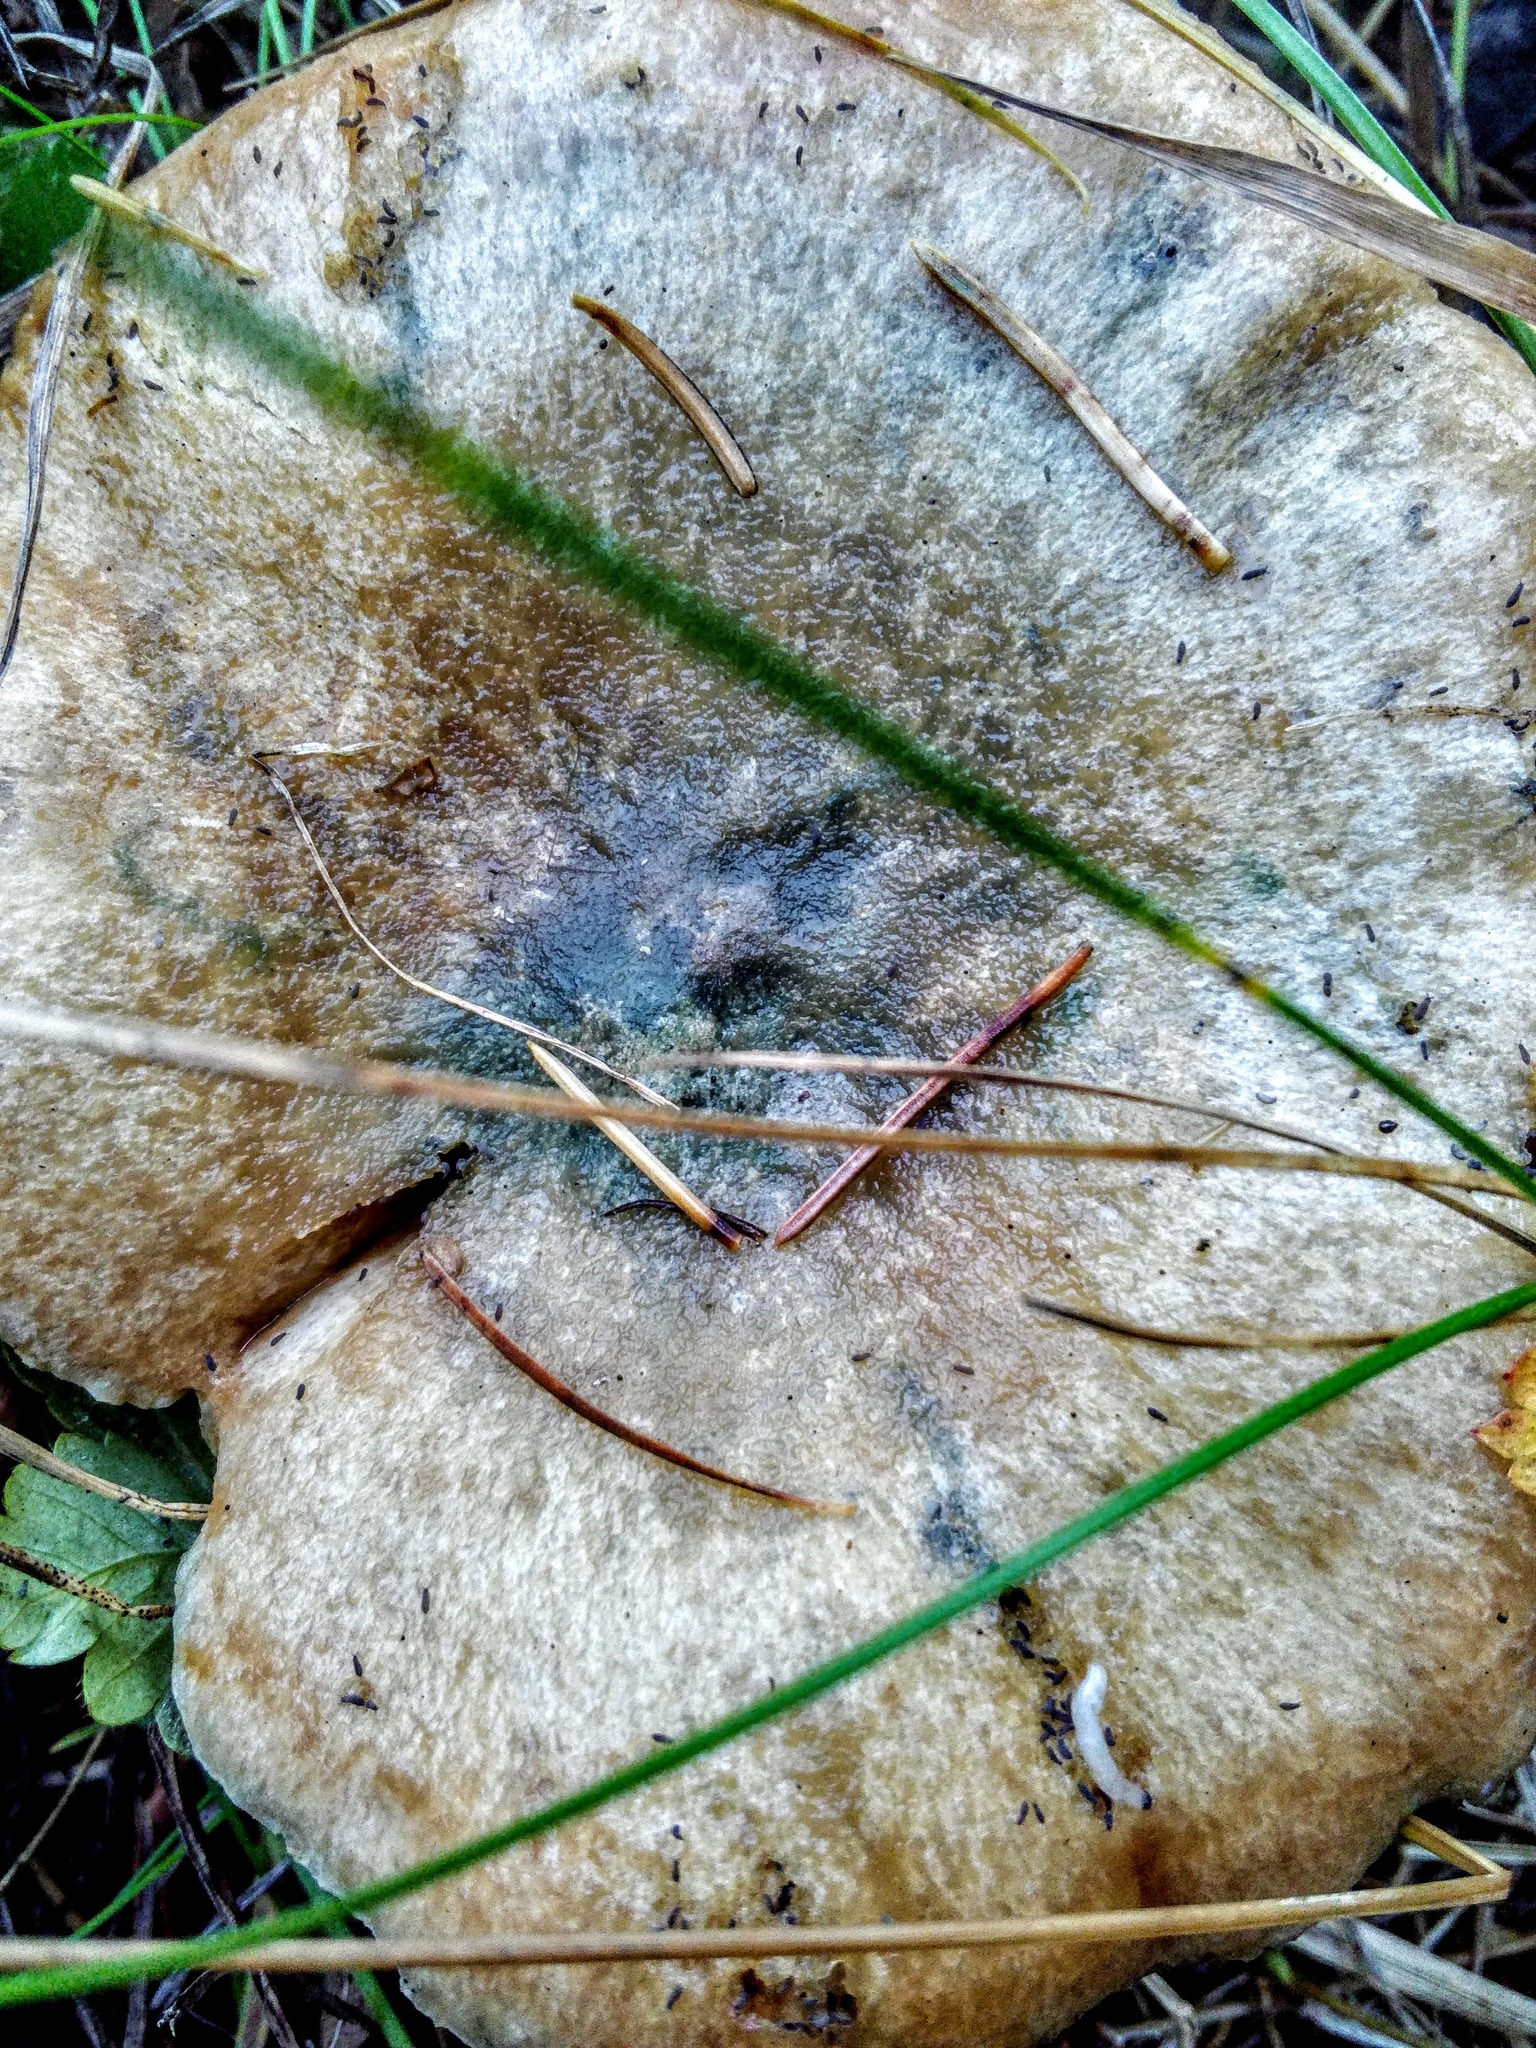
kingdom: Fungi
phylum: Basidiomycota
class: Agaricomycetes
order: Russulales
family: Russulaceae
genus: Lactarius
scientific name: Lactarius deterrimus
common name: False saffron milkcap
